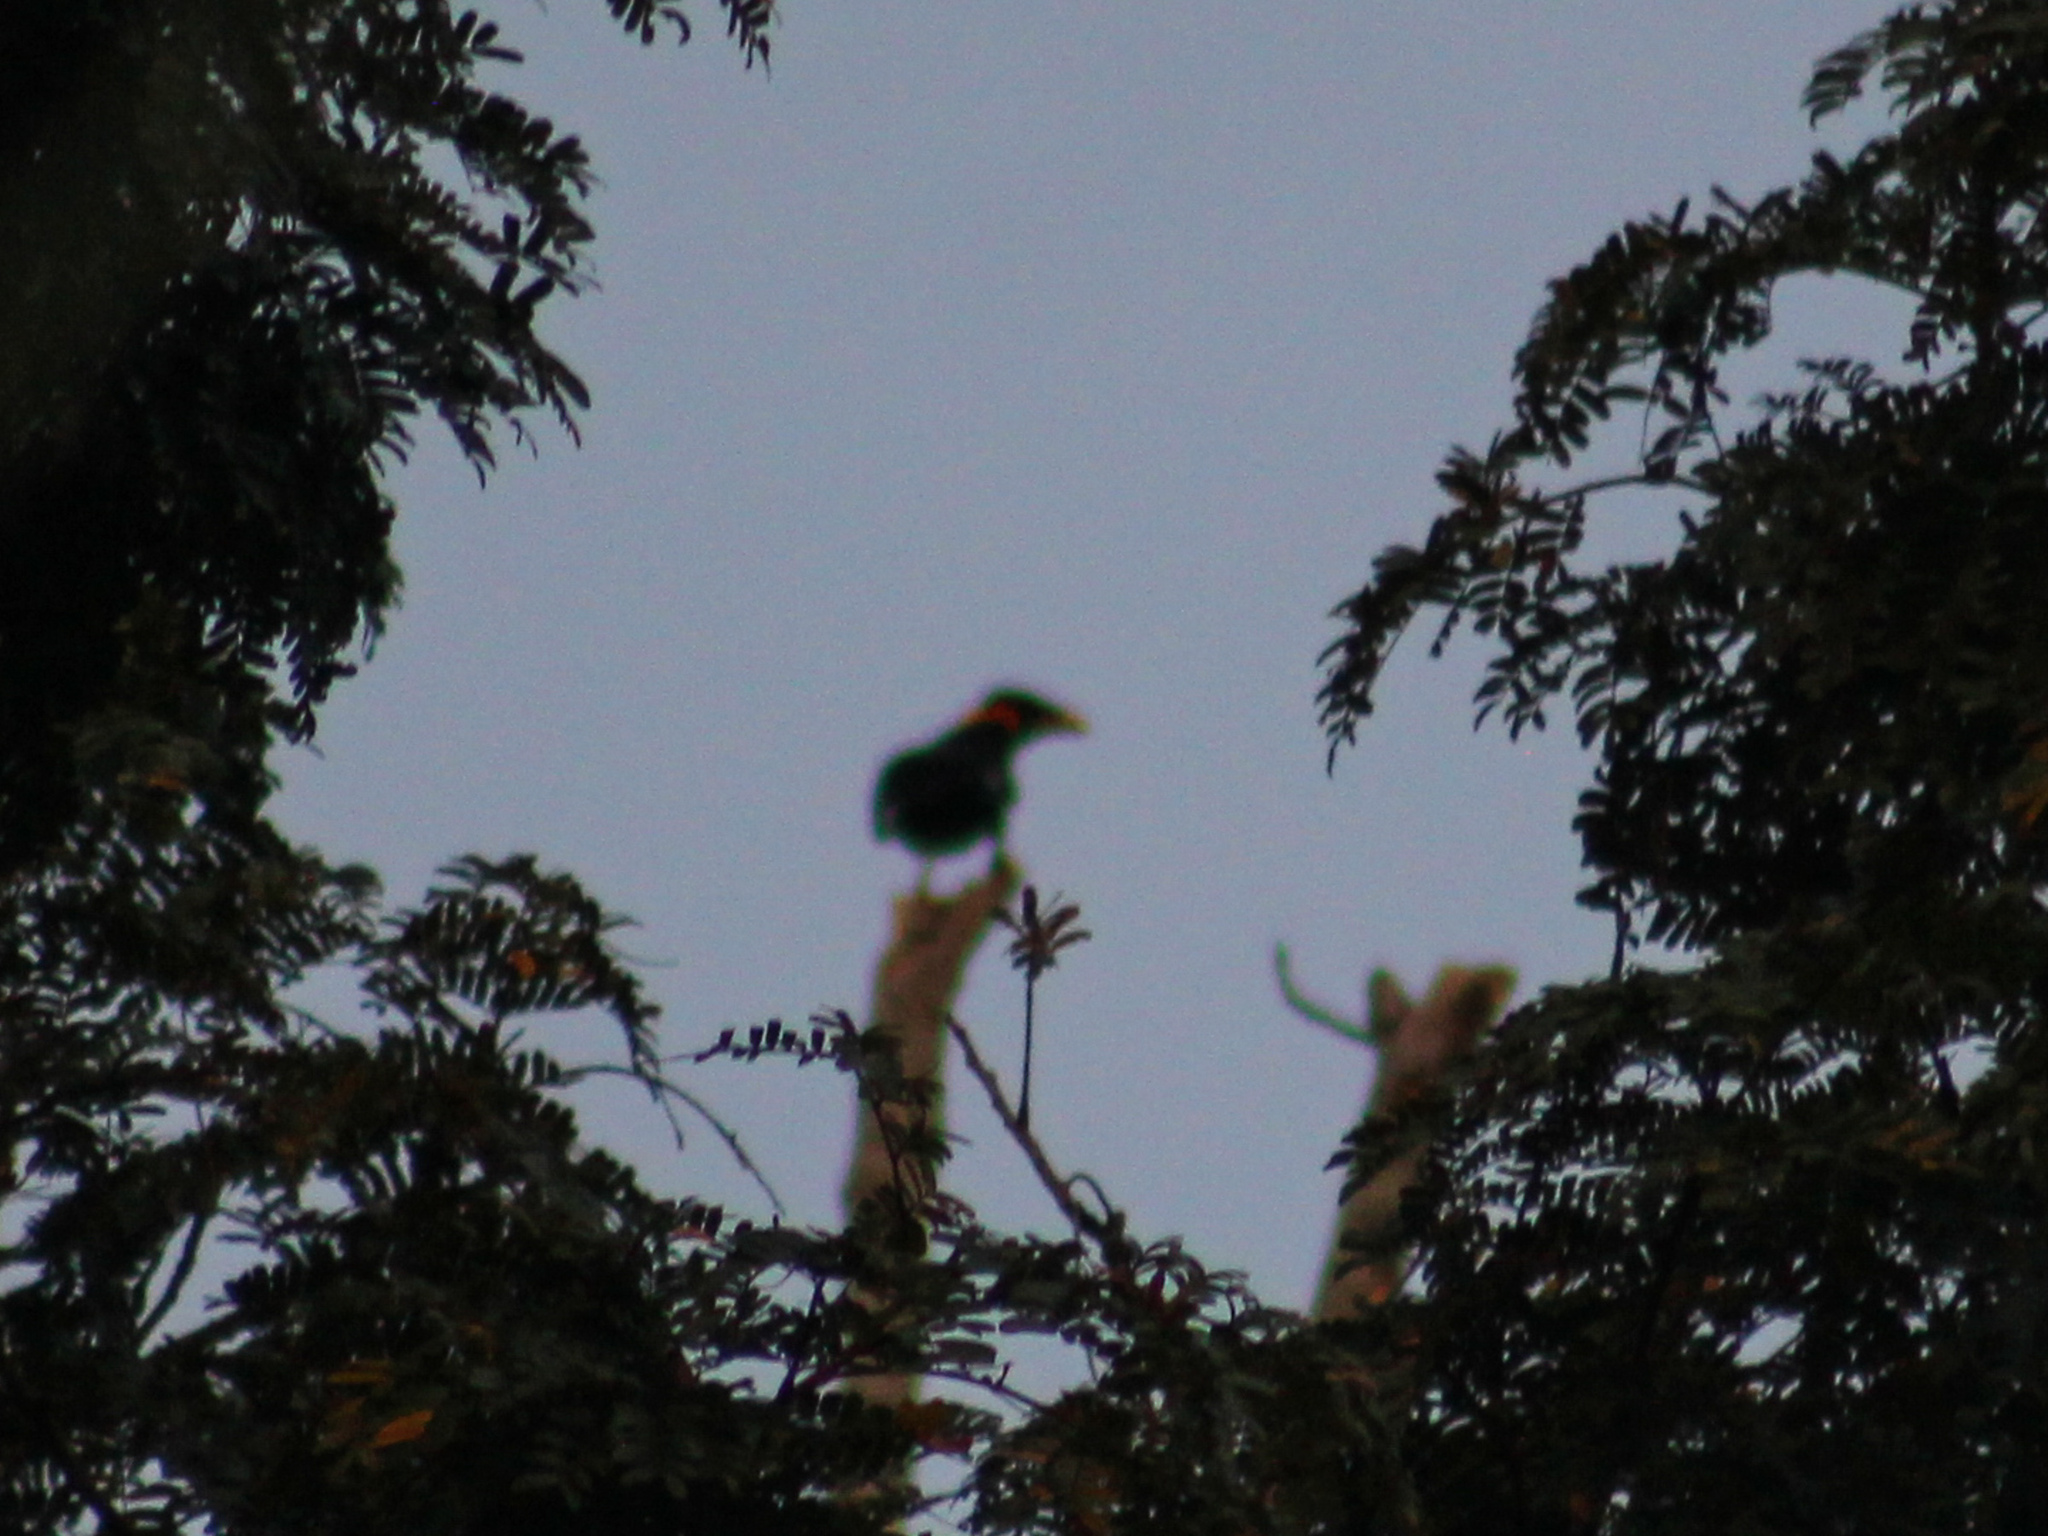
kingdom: Animalia
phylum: Chordata
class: Aves
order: Passeriformes
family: Sturnidae
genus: Gracula
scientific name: Gracula religiosa
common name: Common hill myna
